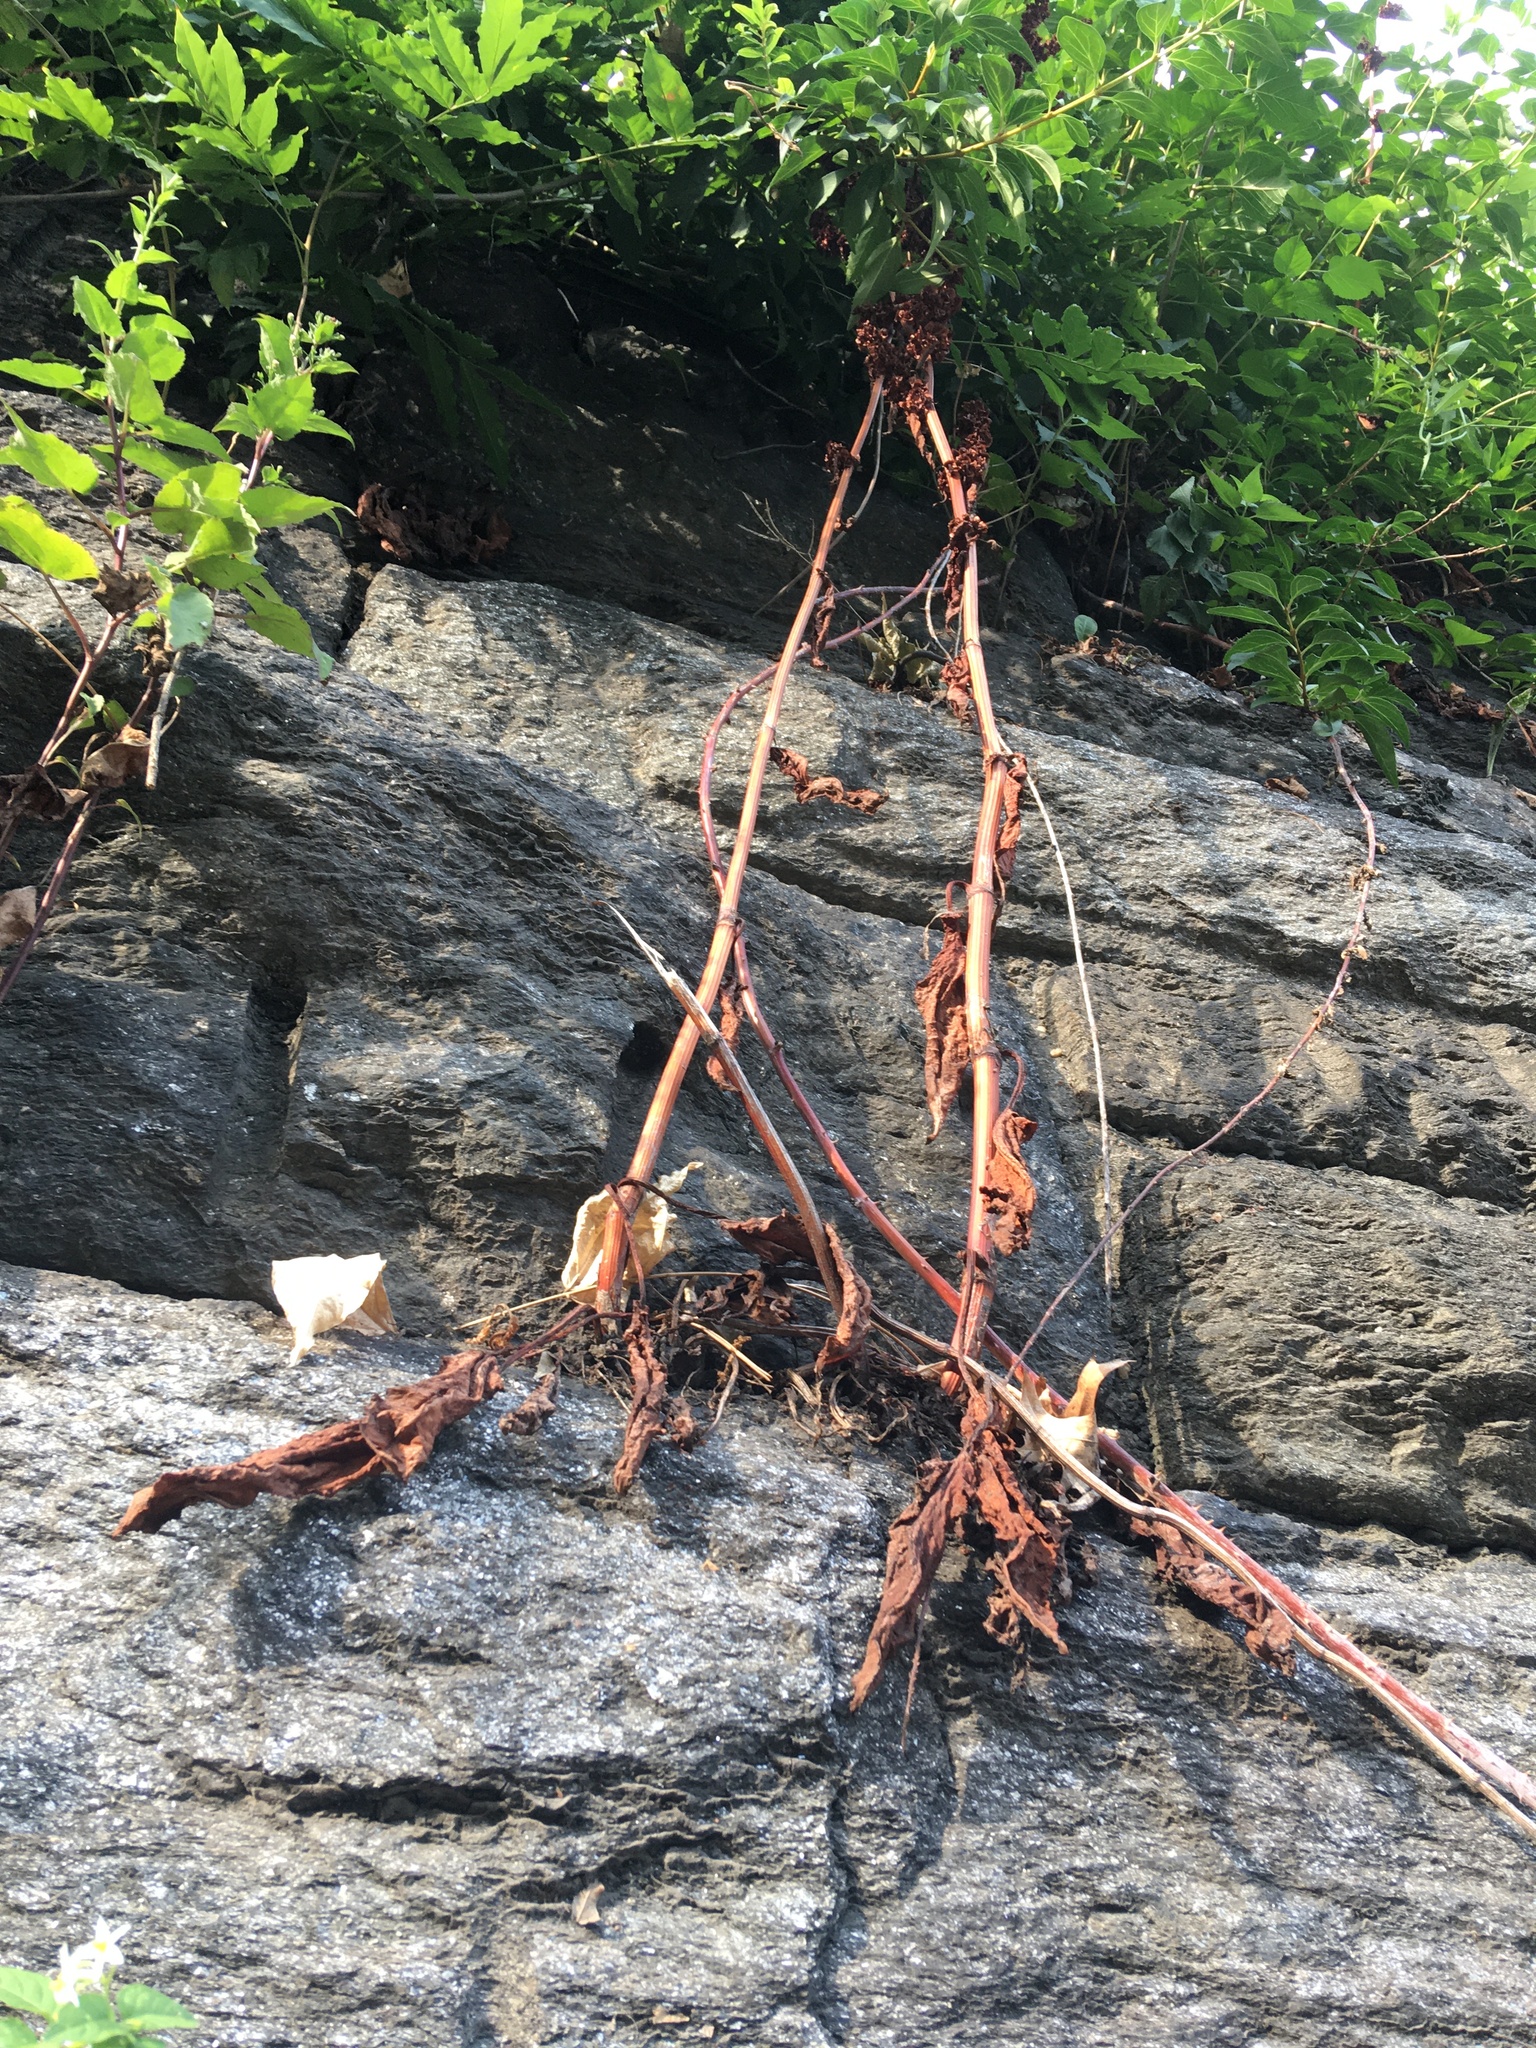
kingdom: Plantae
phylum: Tracheophyta
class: Magnoliopsida
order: Caryophyllales
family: Polygonaceae
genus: Rumex
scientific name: Rumex cristatus
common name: Greek dock
